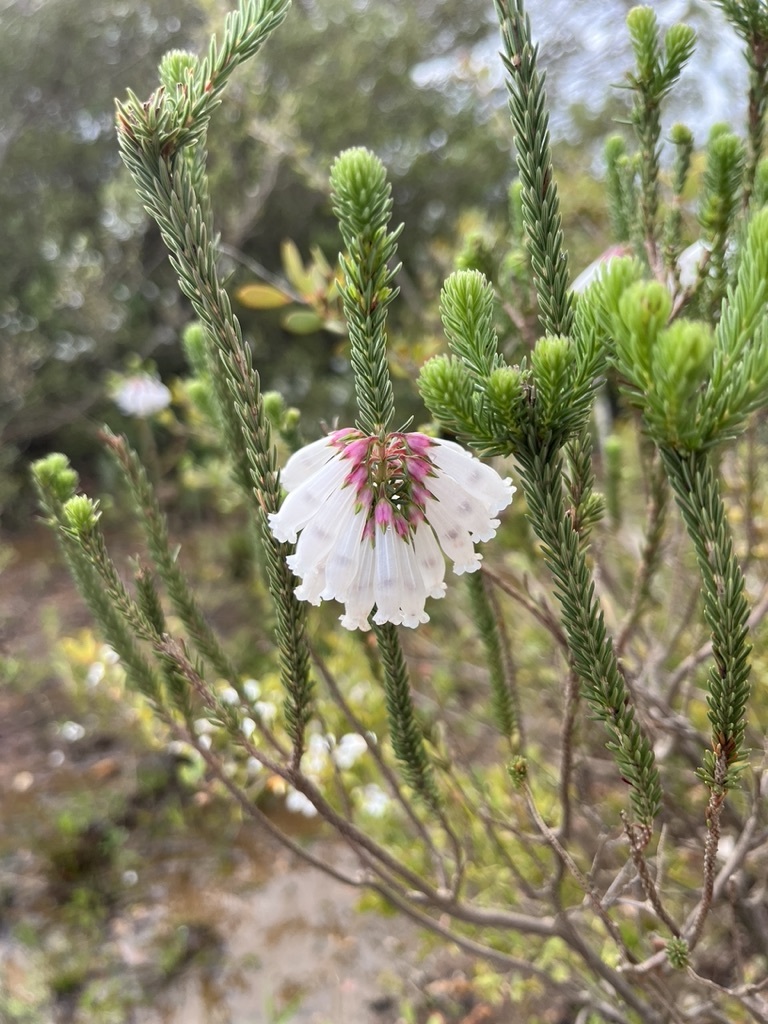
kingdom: Plantae
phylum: Tracheophyta
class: Magnoliopsida
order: Ericales
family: Ericaceae
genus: Erica
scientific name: Erica regia
